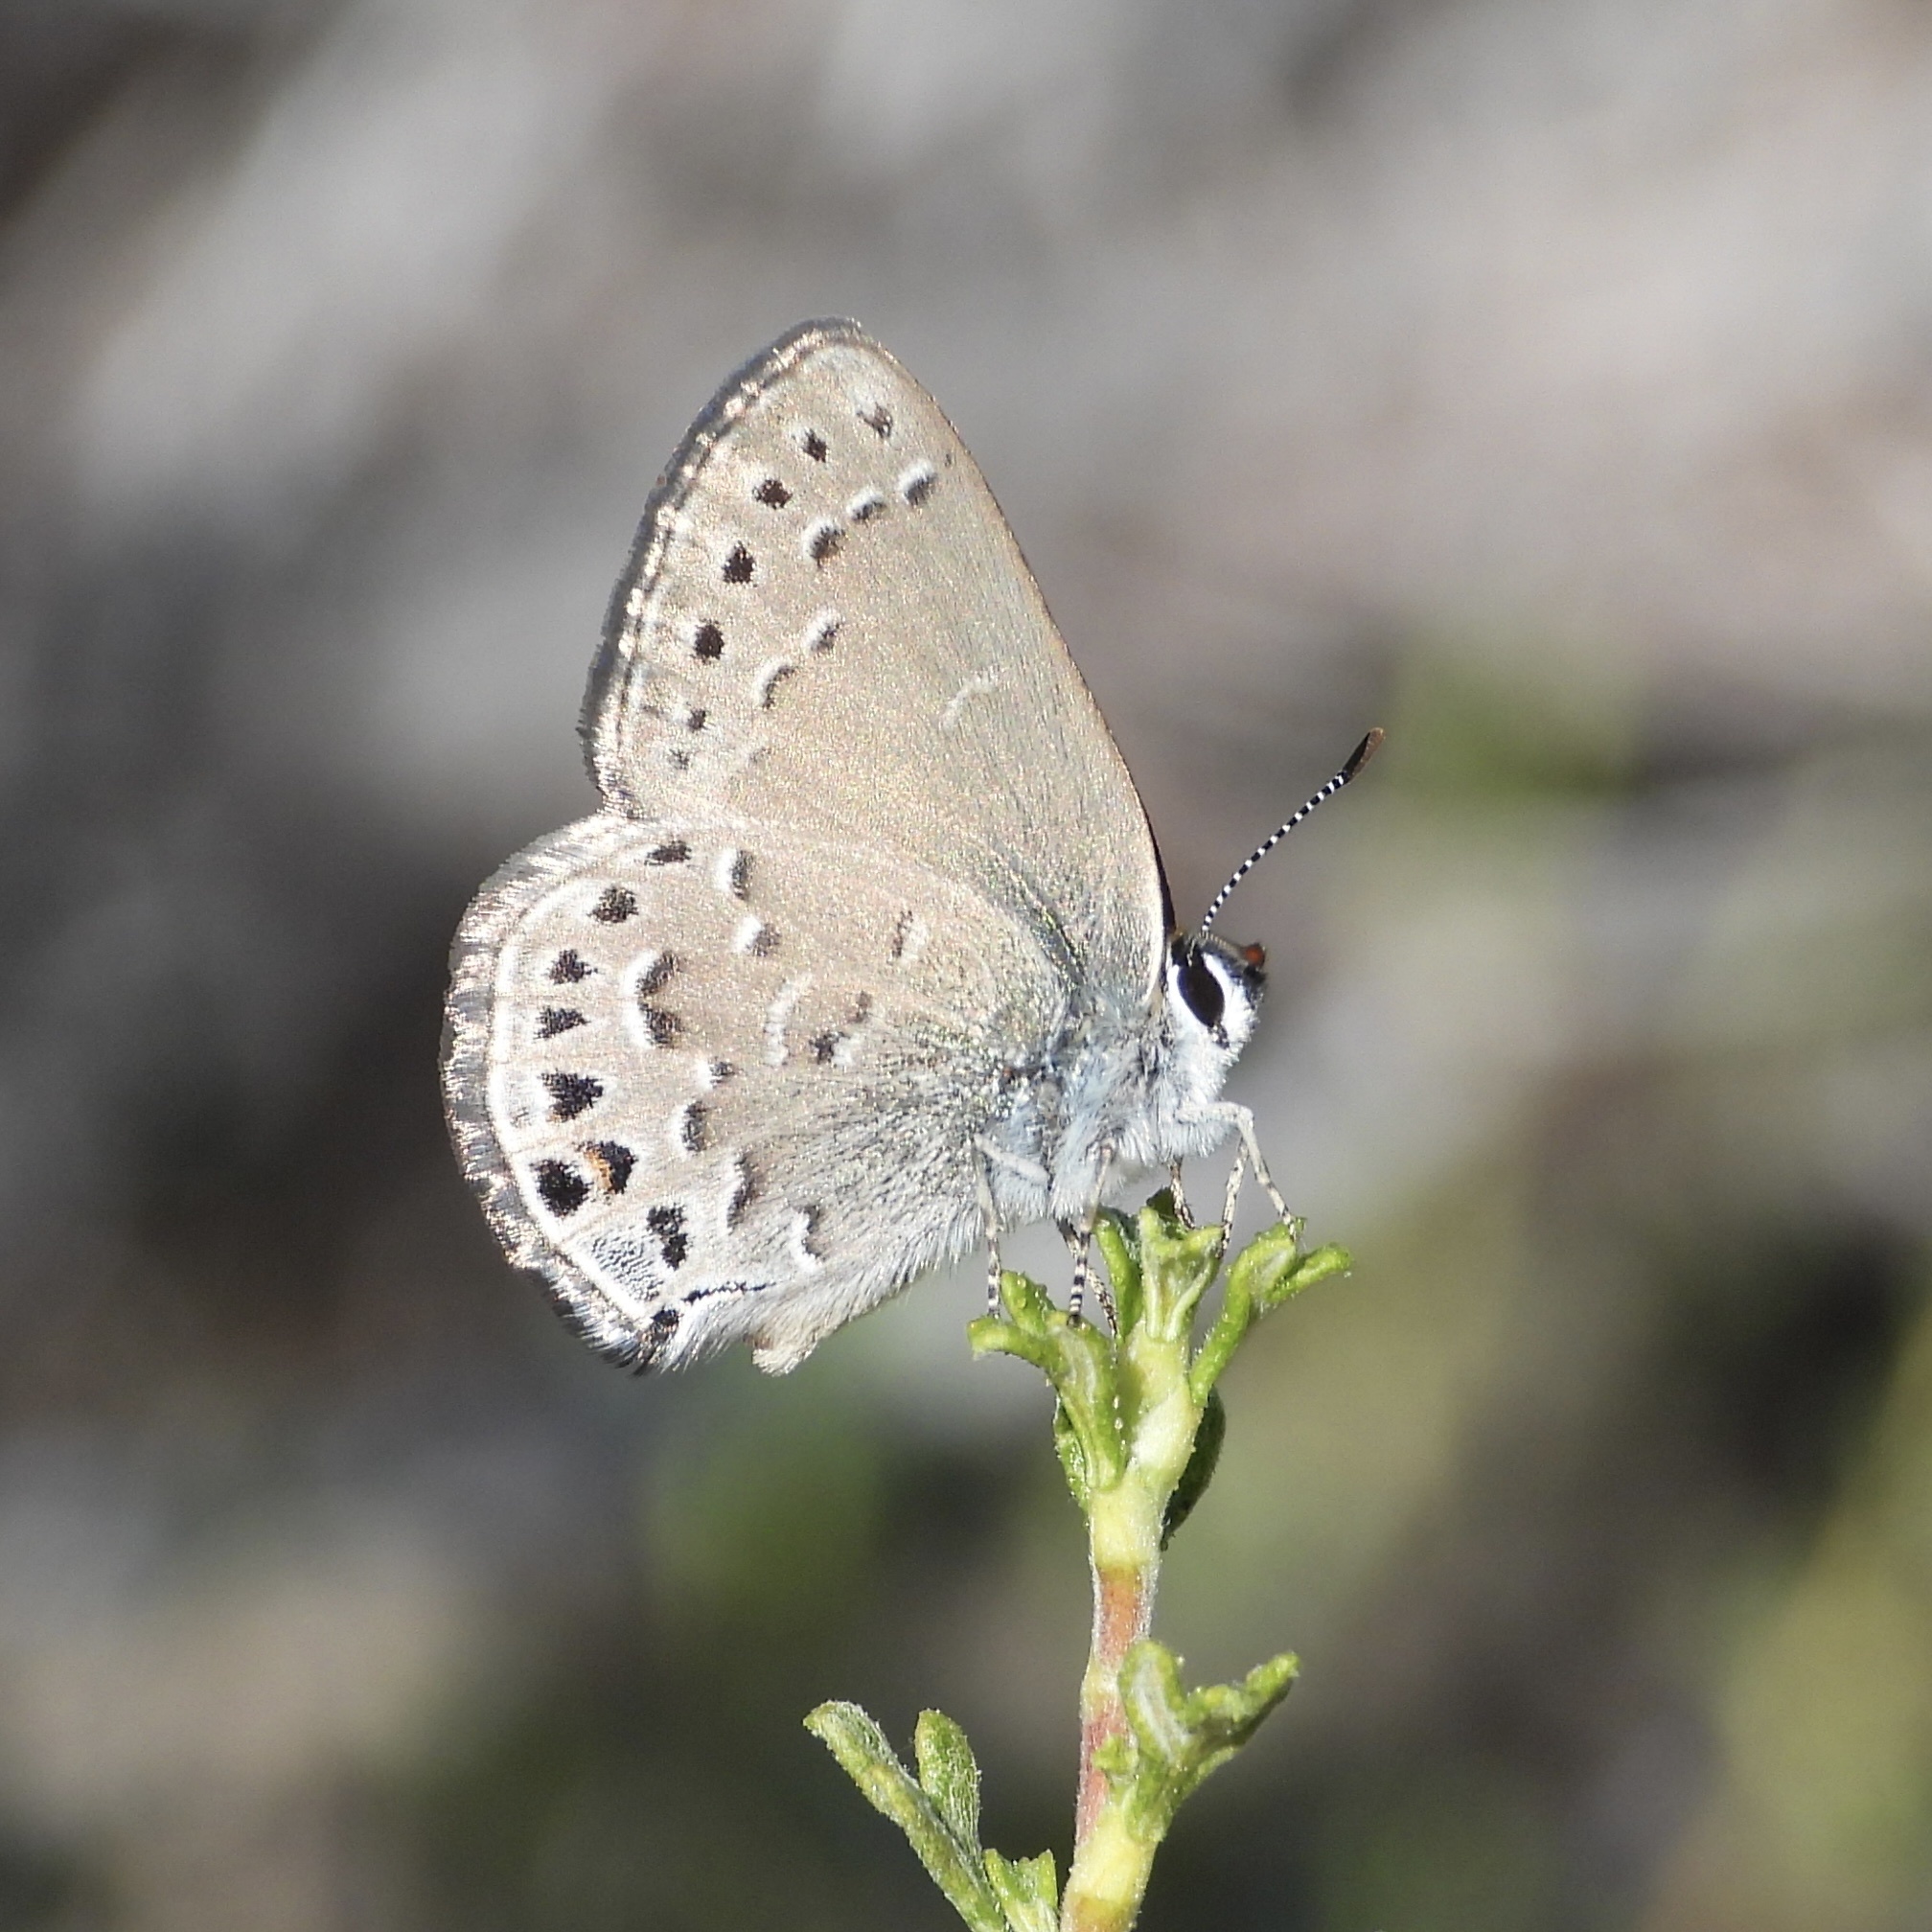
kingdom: Animalia
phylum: Arthropoda
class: Insecta
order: Lepidoptera
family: Lycaenidae
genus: Satyrium
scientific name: Satyrium behrii
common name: Behr's hairstreak
